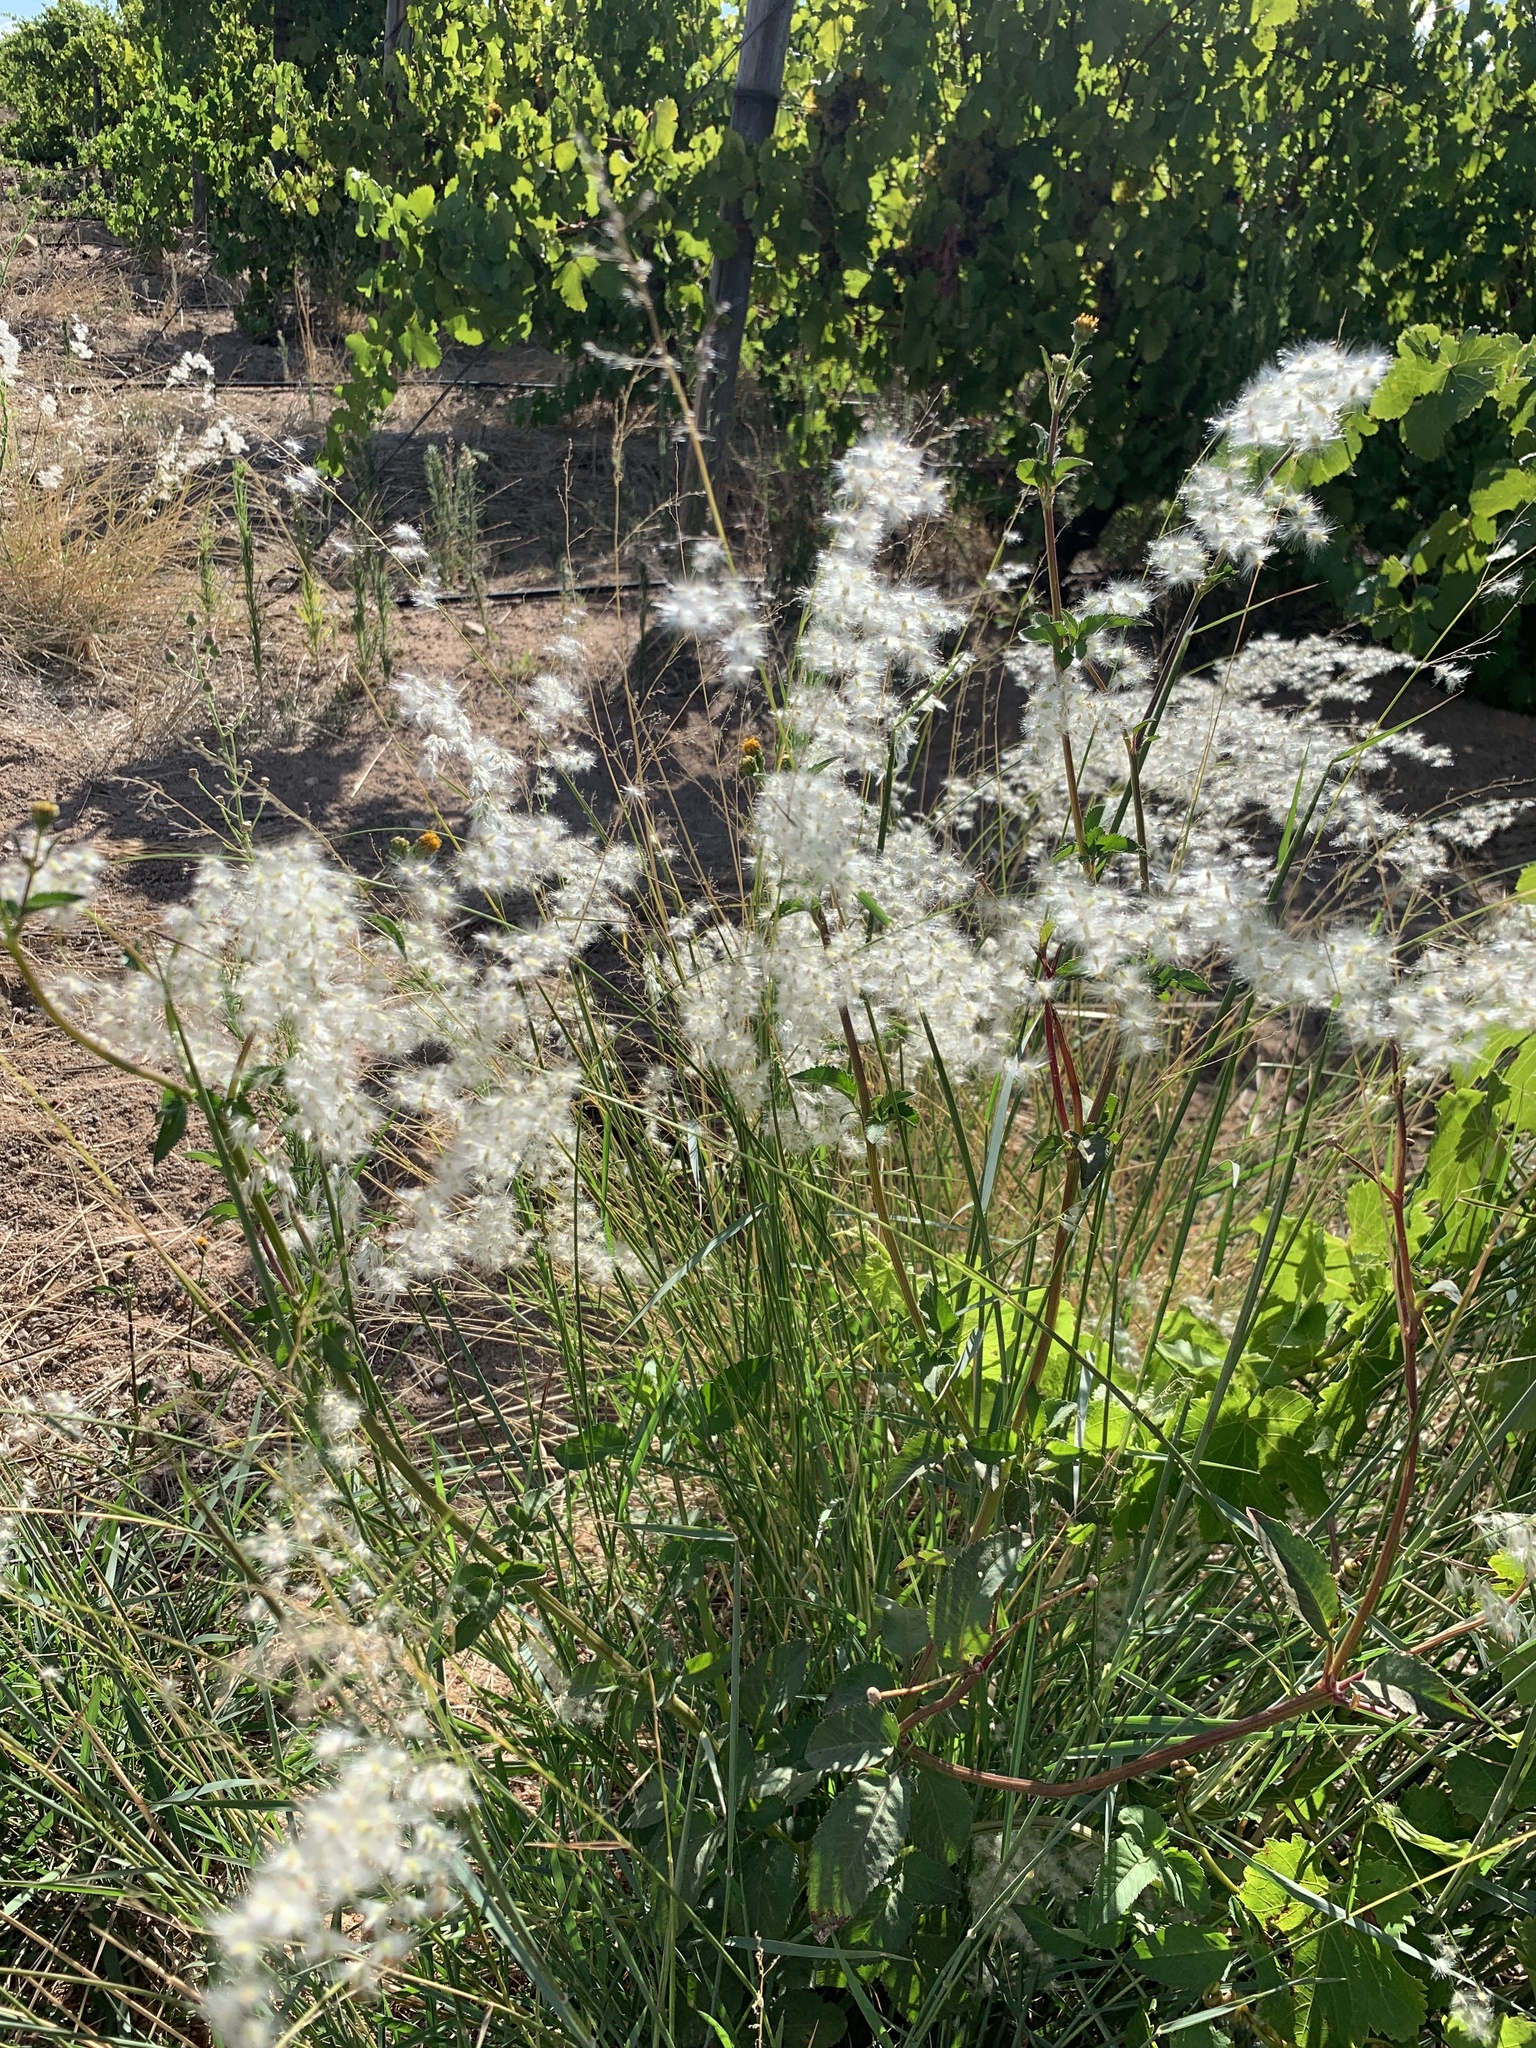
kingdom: Plantae
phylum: Tracheophyta
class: Liliopsida
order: Poales
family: Poaceae
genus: Melinis
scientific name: Melinis repens
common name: Rose natal grass
